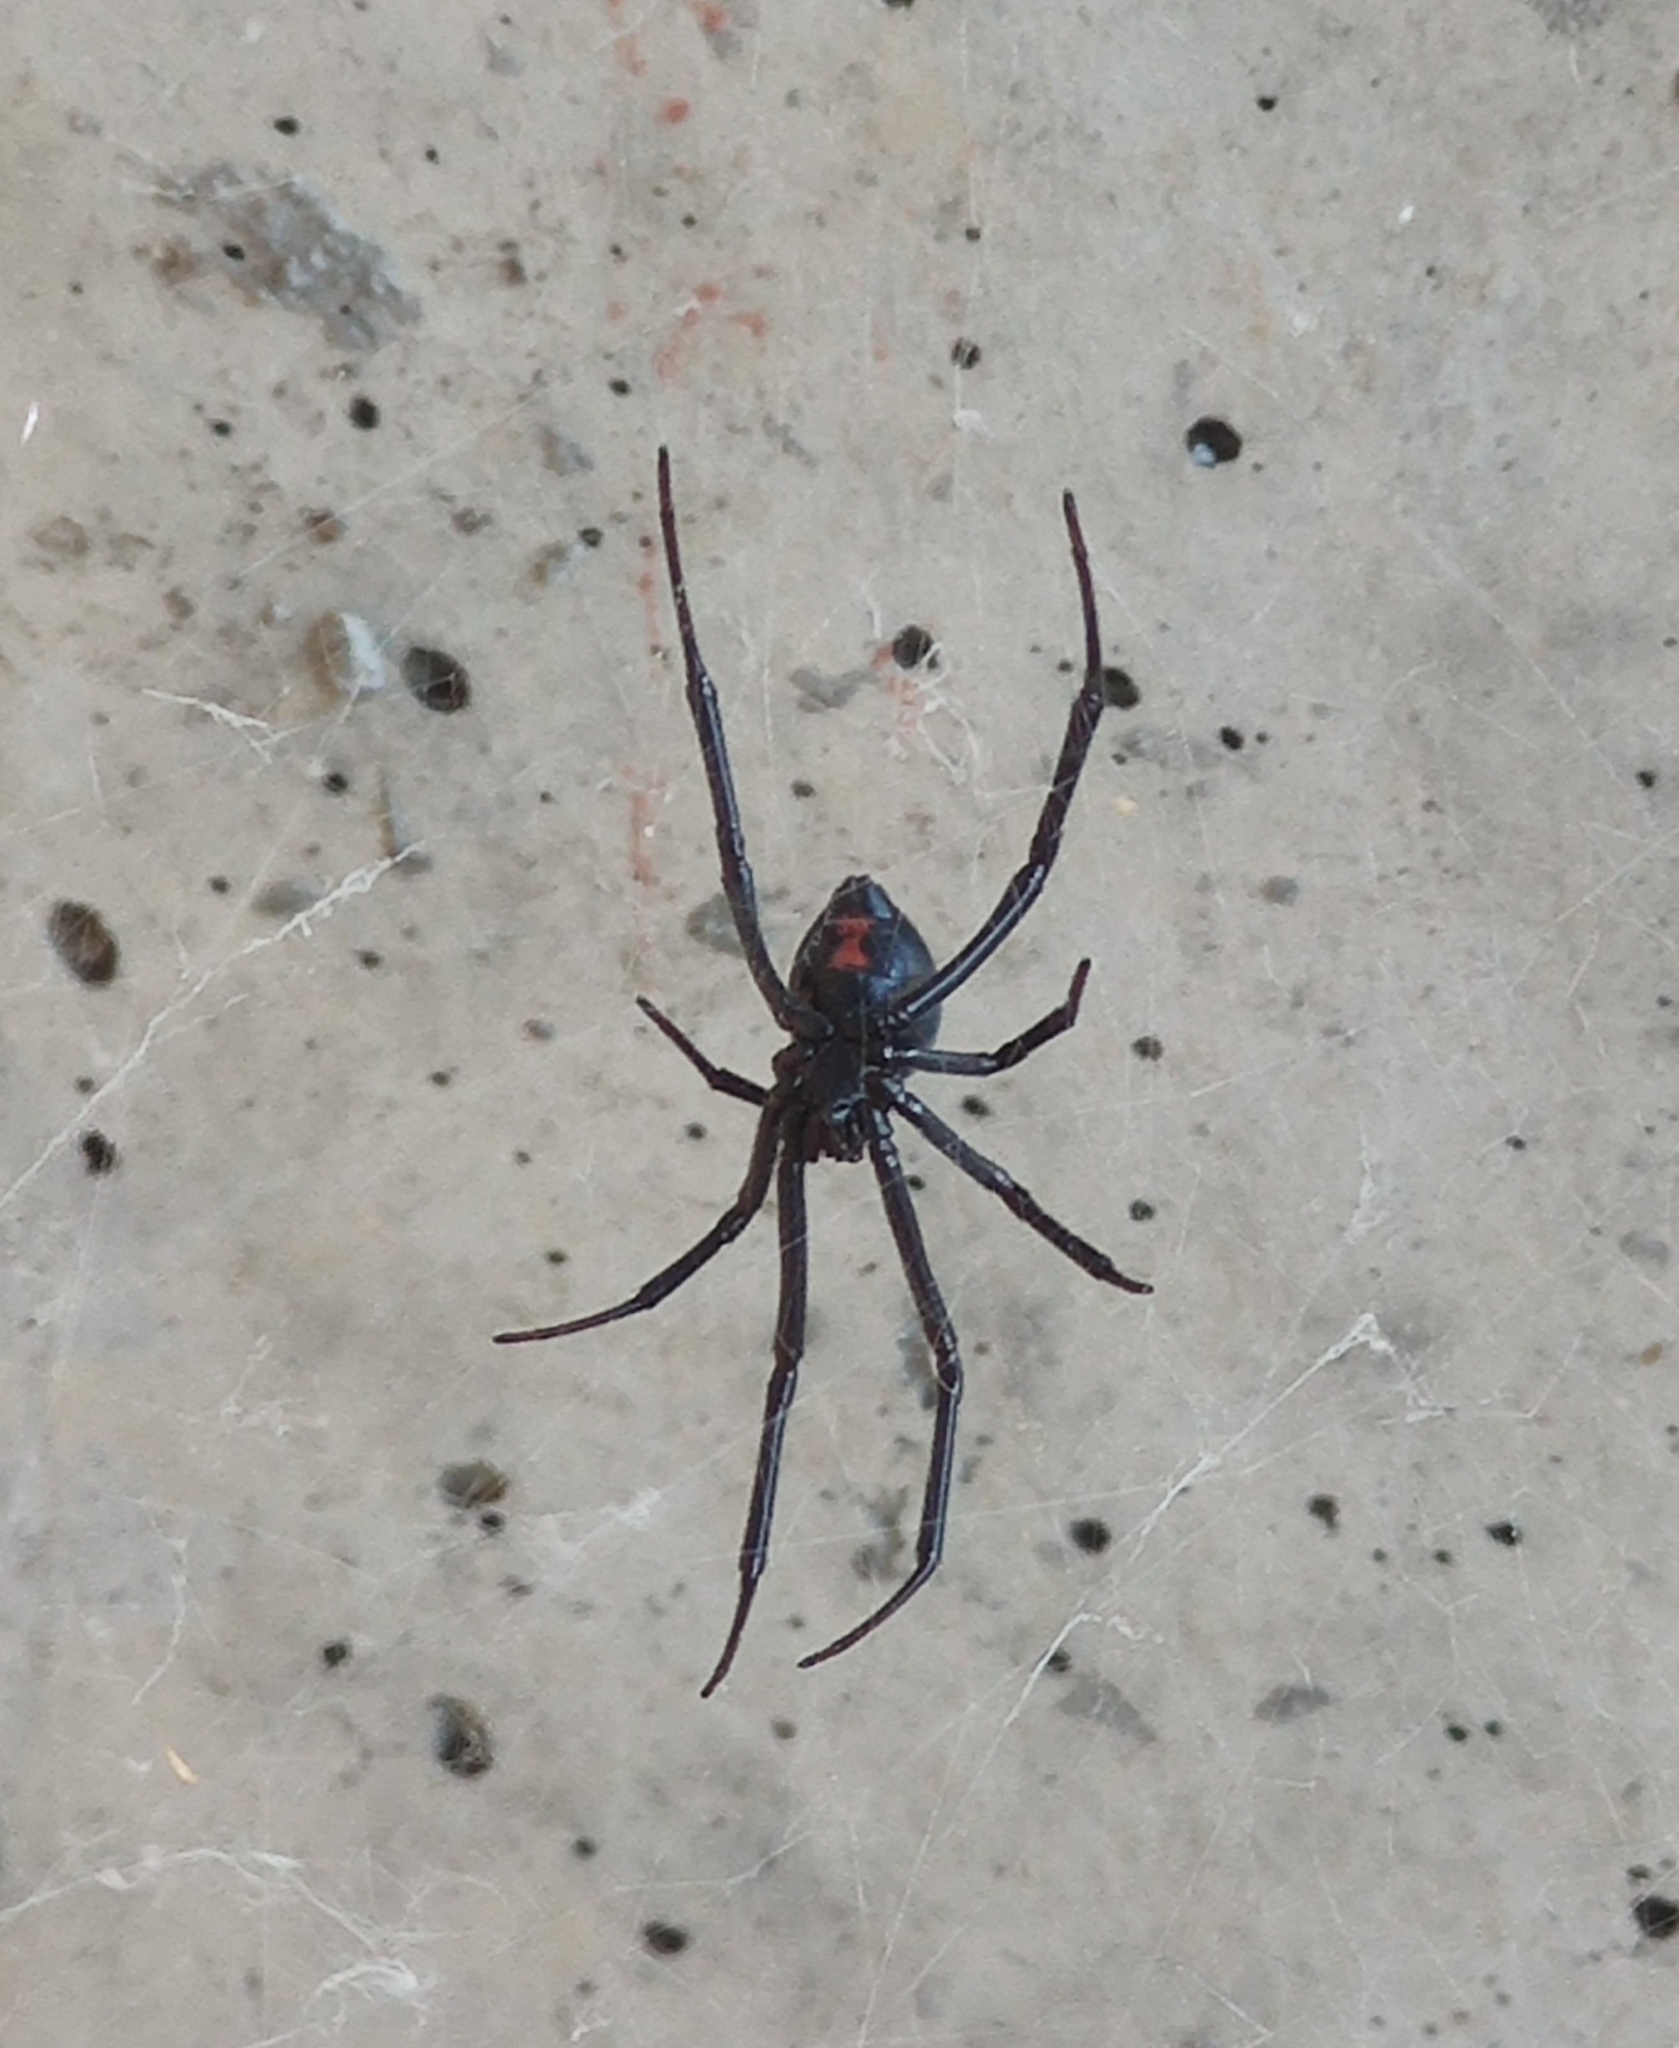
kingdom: Animalia
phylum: Arthropoda
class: Arachnida
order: Araneae
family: Theridiidae
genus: Latrodectus
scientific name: Latrodectus hesperus
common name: Western black widow
